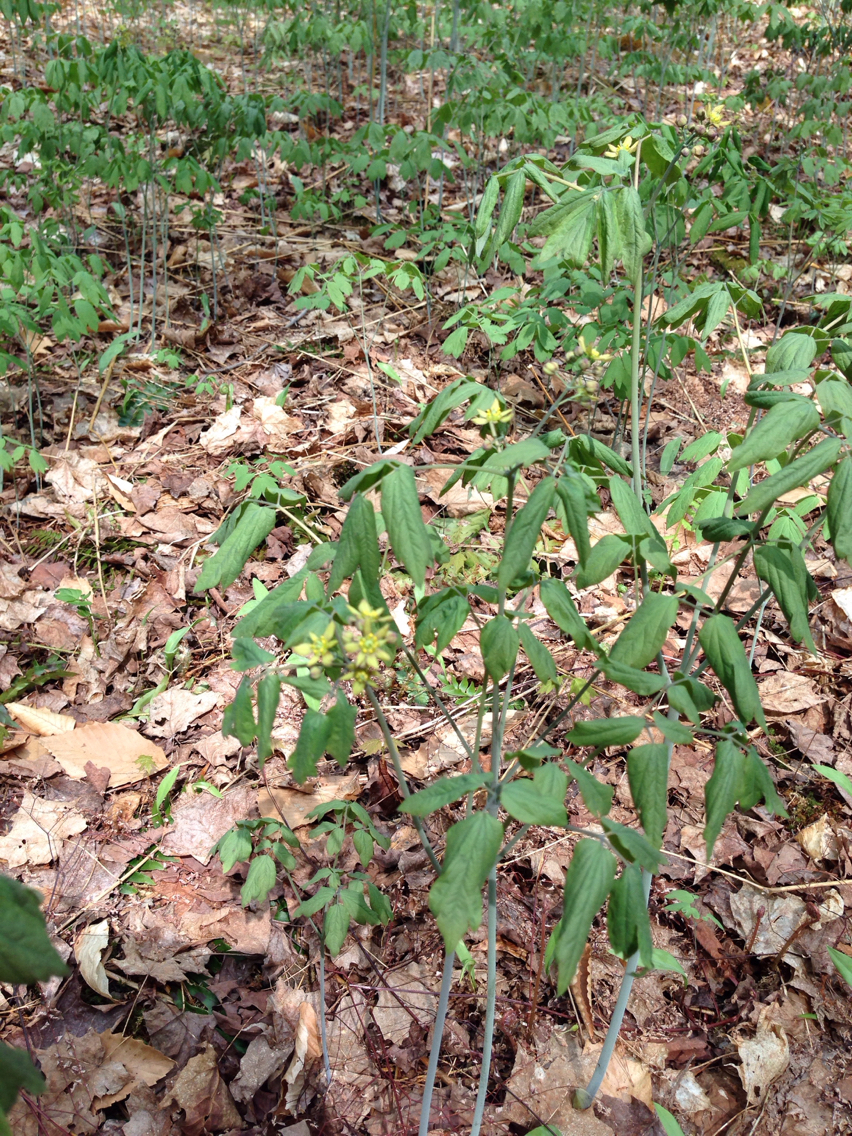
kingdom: Plantae
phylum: Tracheophyta
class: Magnoliopsida
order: Ranunculales
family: Berberidaceae
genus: Caulophyllum
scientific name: Caulophyllum thalictroides
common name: Blue cohosh
